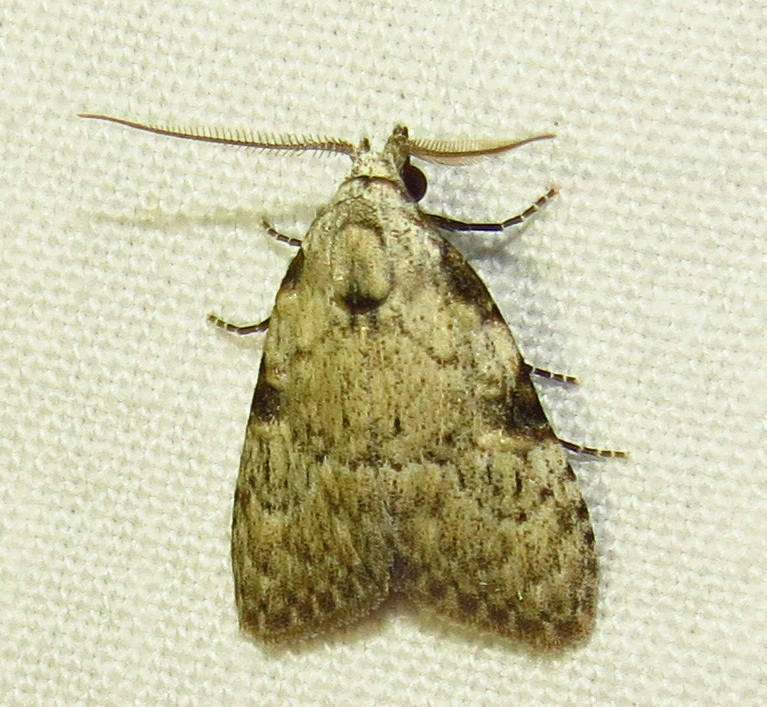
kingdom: Animalia
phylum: Arthropoda
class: Insecta
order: Lepidoptera
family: Nolidae
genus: Meganola
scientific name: Meganola minuscula
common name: Confused meganola moth
